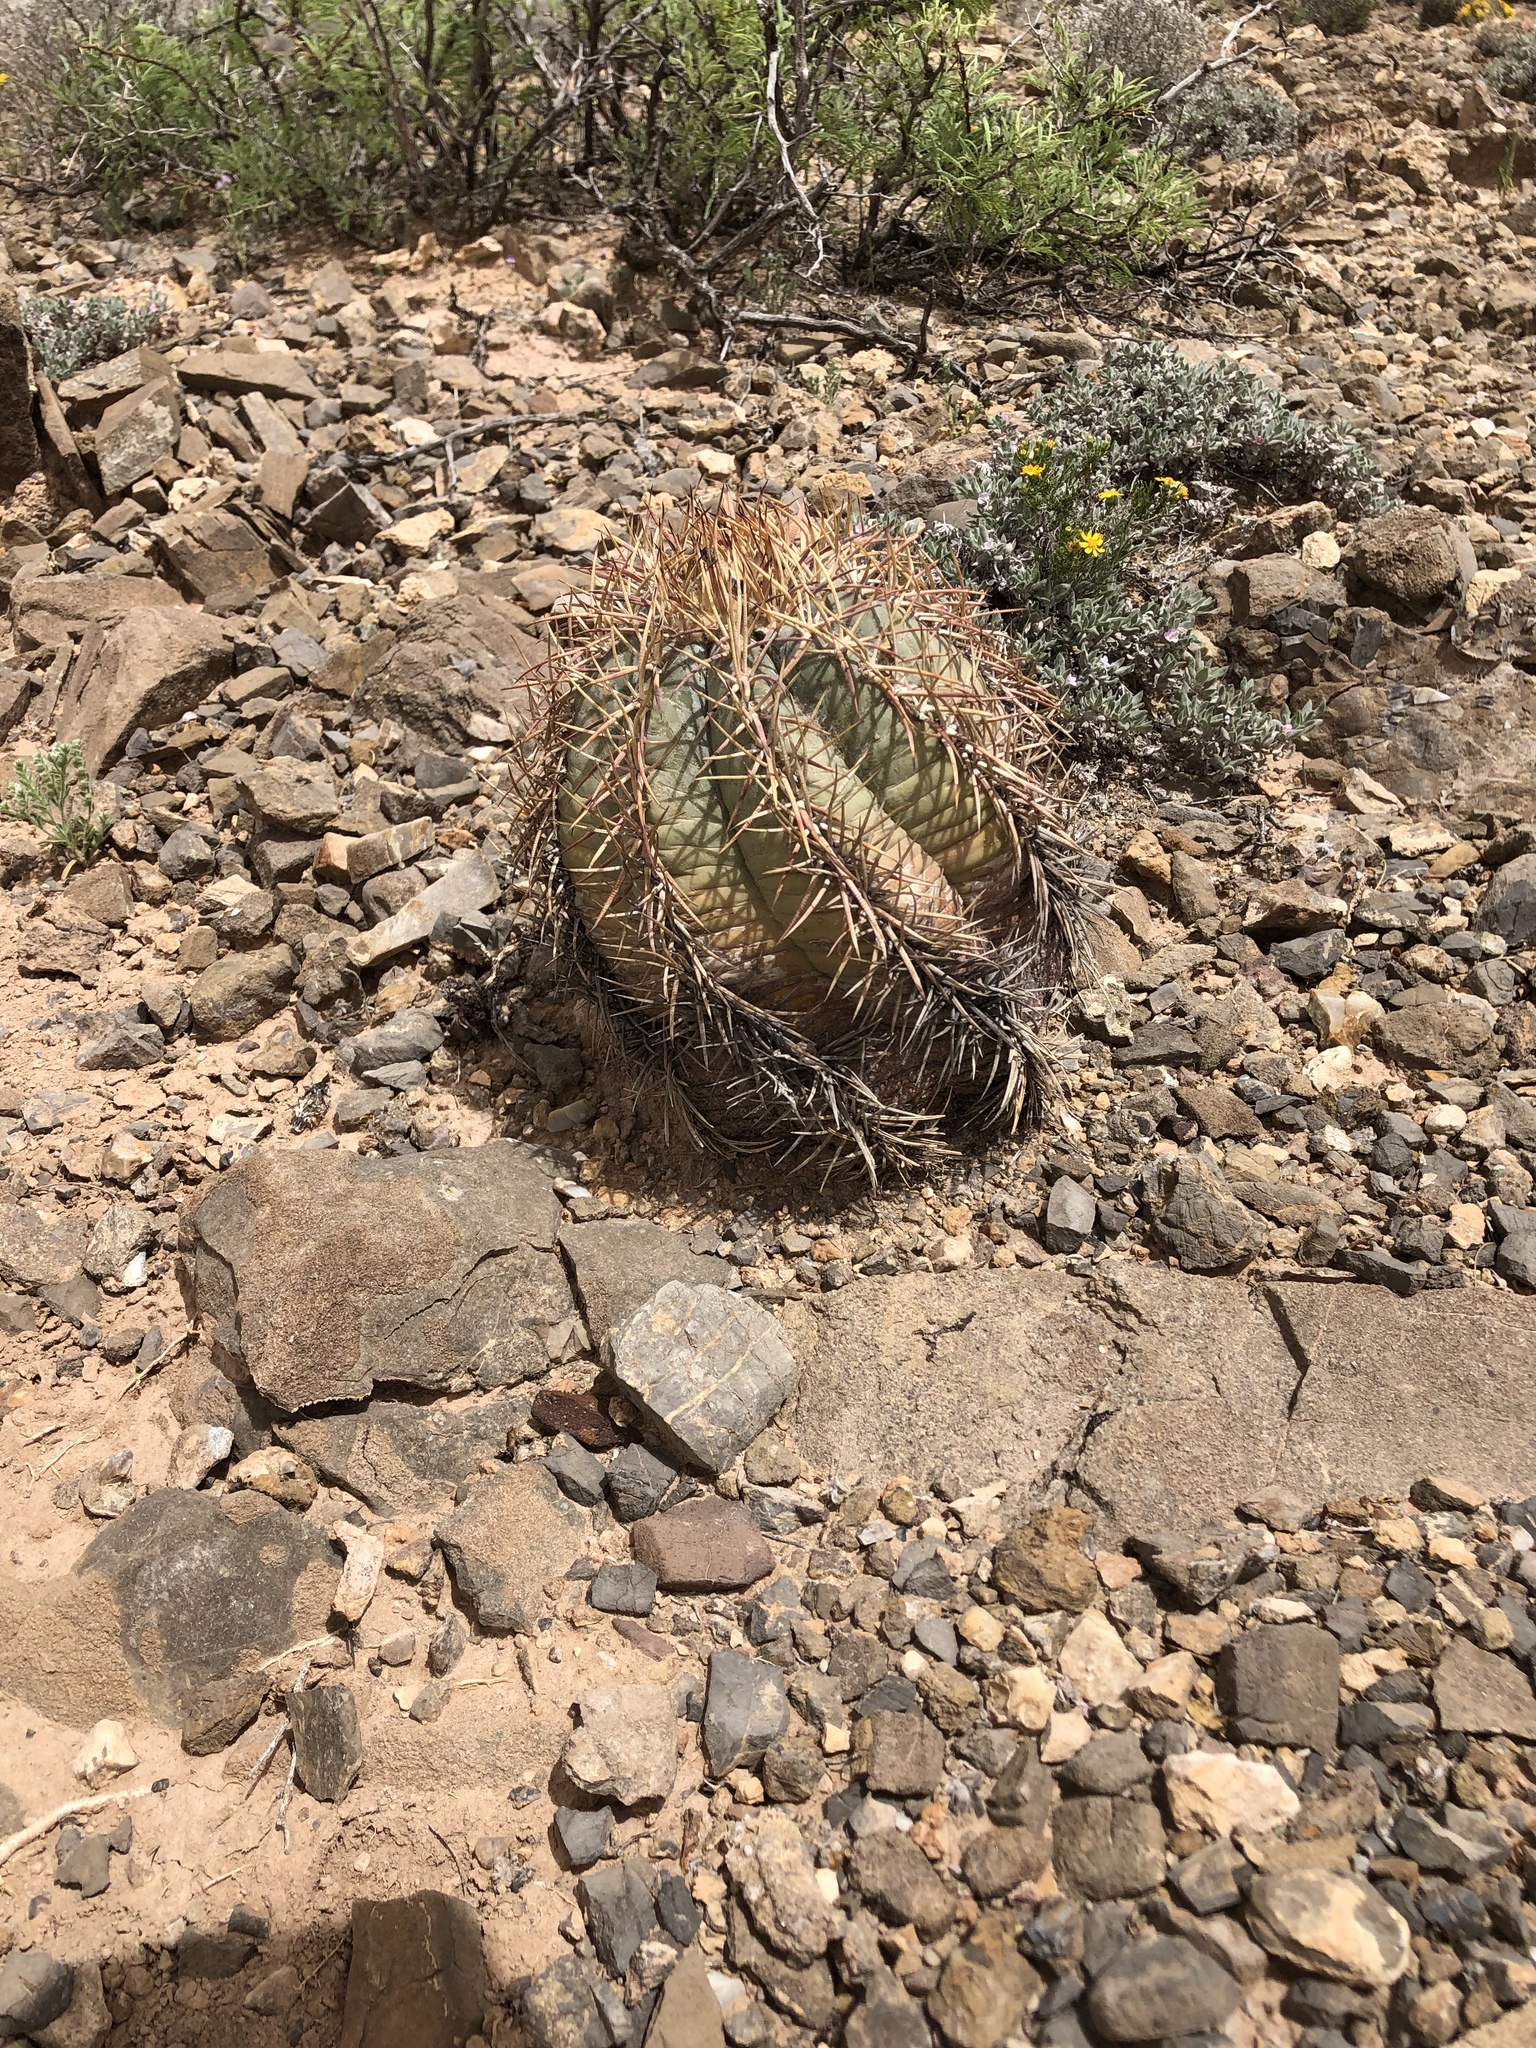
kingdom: Plantae
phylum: Tracheophyta
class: Magnoliopsida
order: Caryophyllales
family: Cactaceae
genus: Echinocactus
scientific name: Echinocactus horizonthalonius
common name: Devilshead
